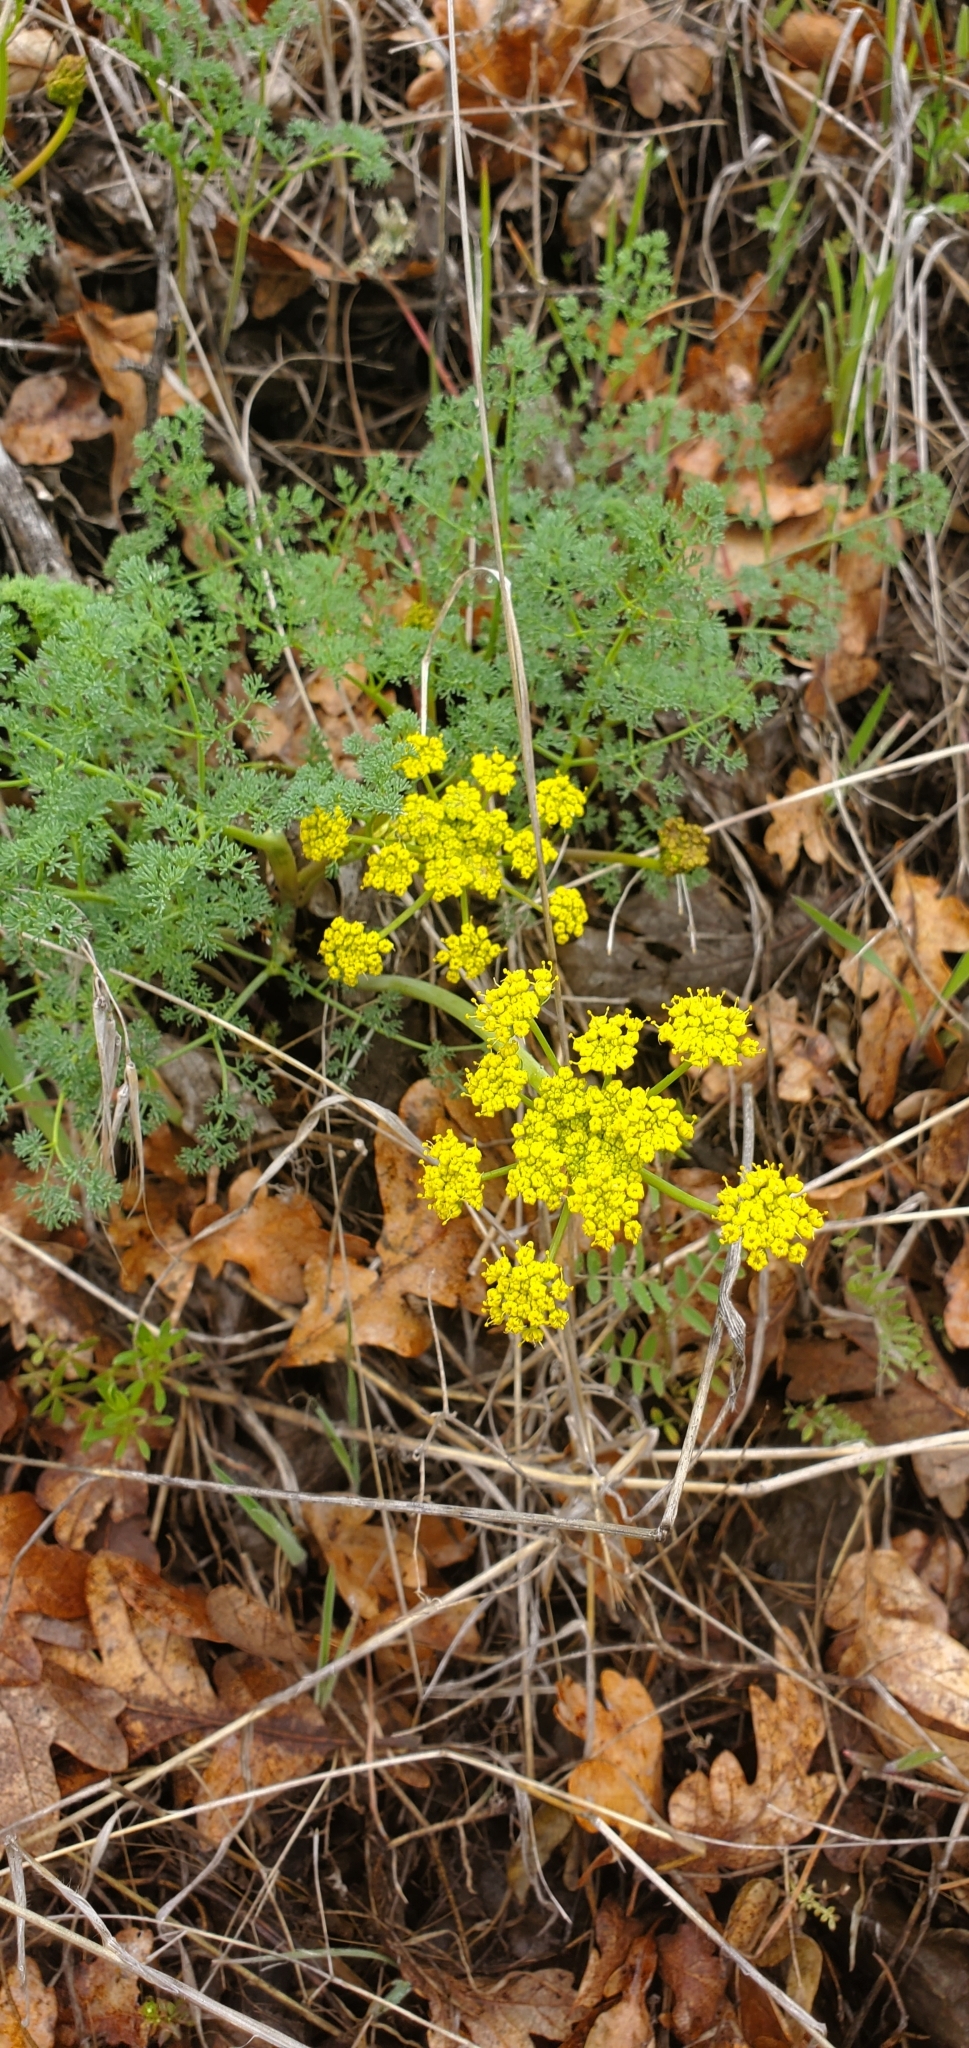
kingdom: Plantae
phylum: Tracheophyta
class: Magnoliopsida
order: Apiales
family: Apiaceae
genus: Lomatium
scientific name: Lomatium papilioniferum
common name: Butterfly lomatium
